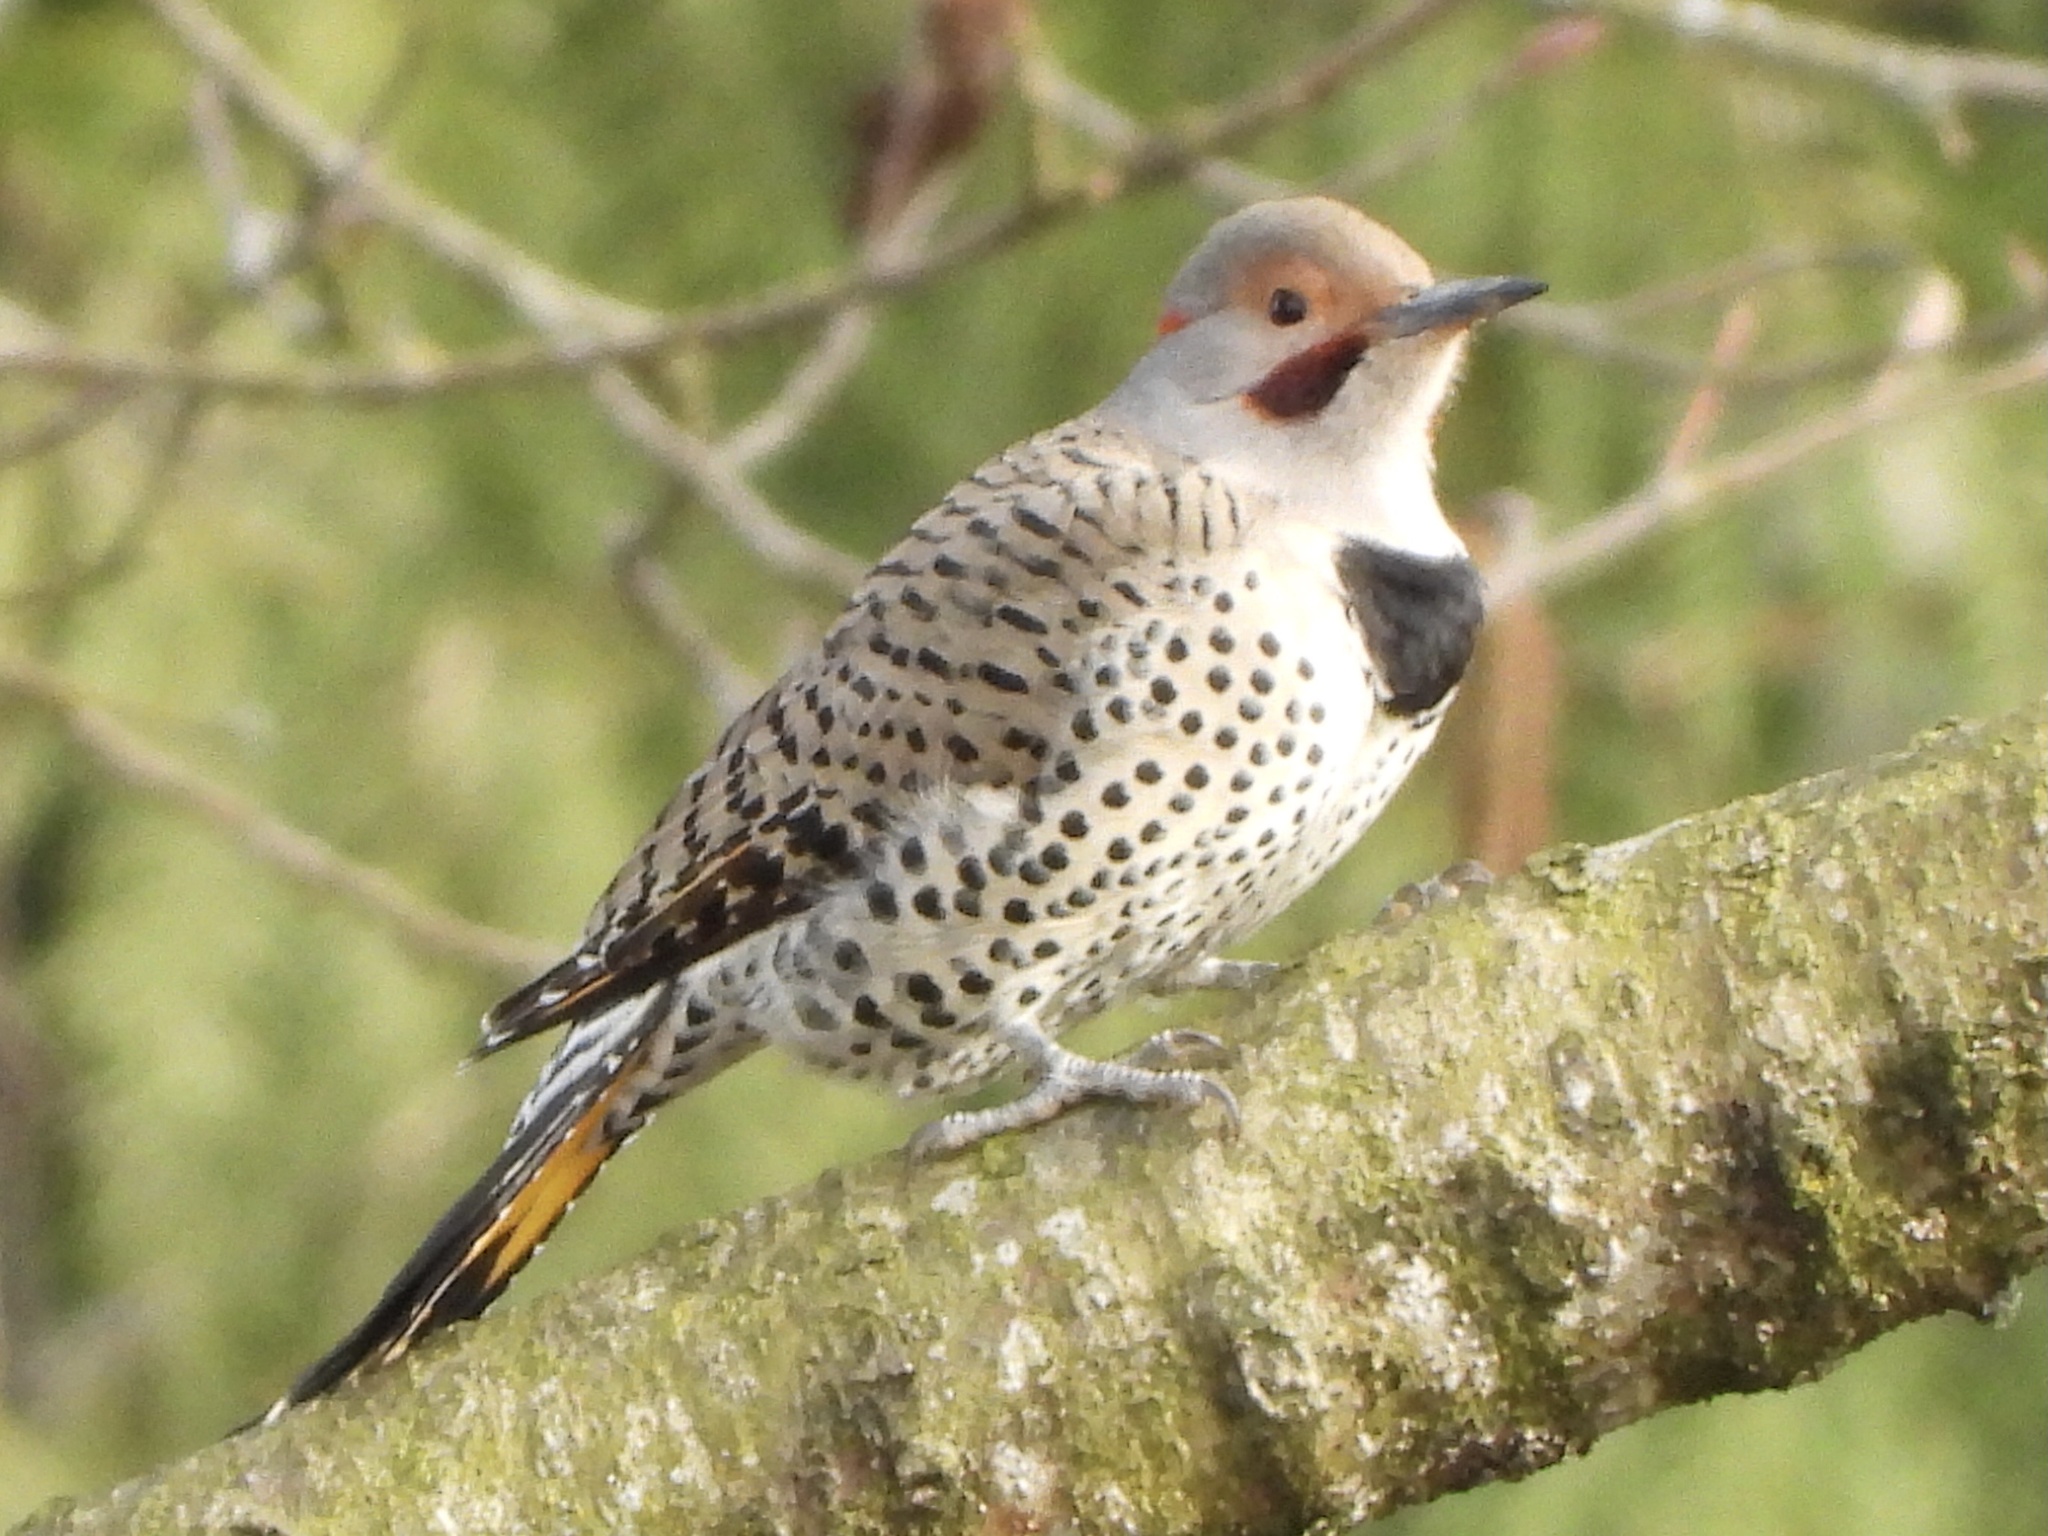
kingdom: Animalia
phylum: Chordata
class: Aves
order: Piciformes
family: Picidae
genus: Colaptes
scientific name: Colaptes
